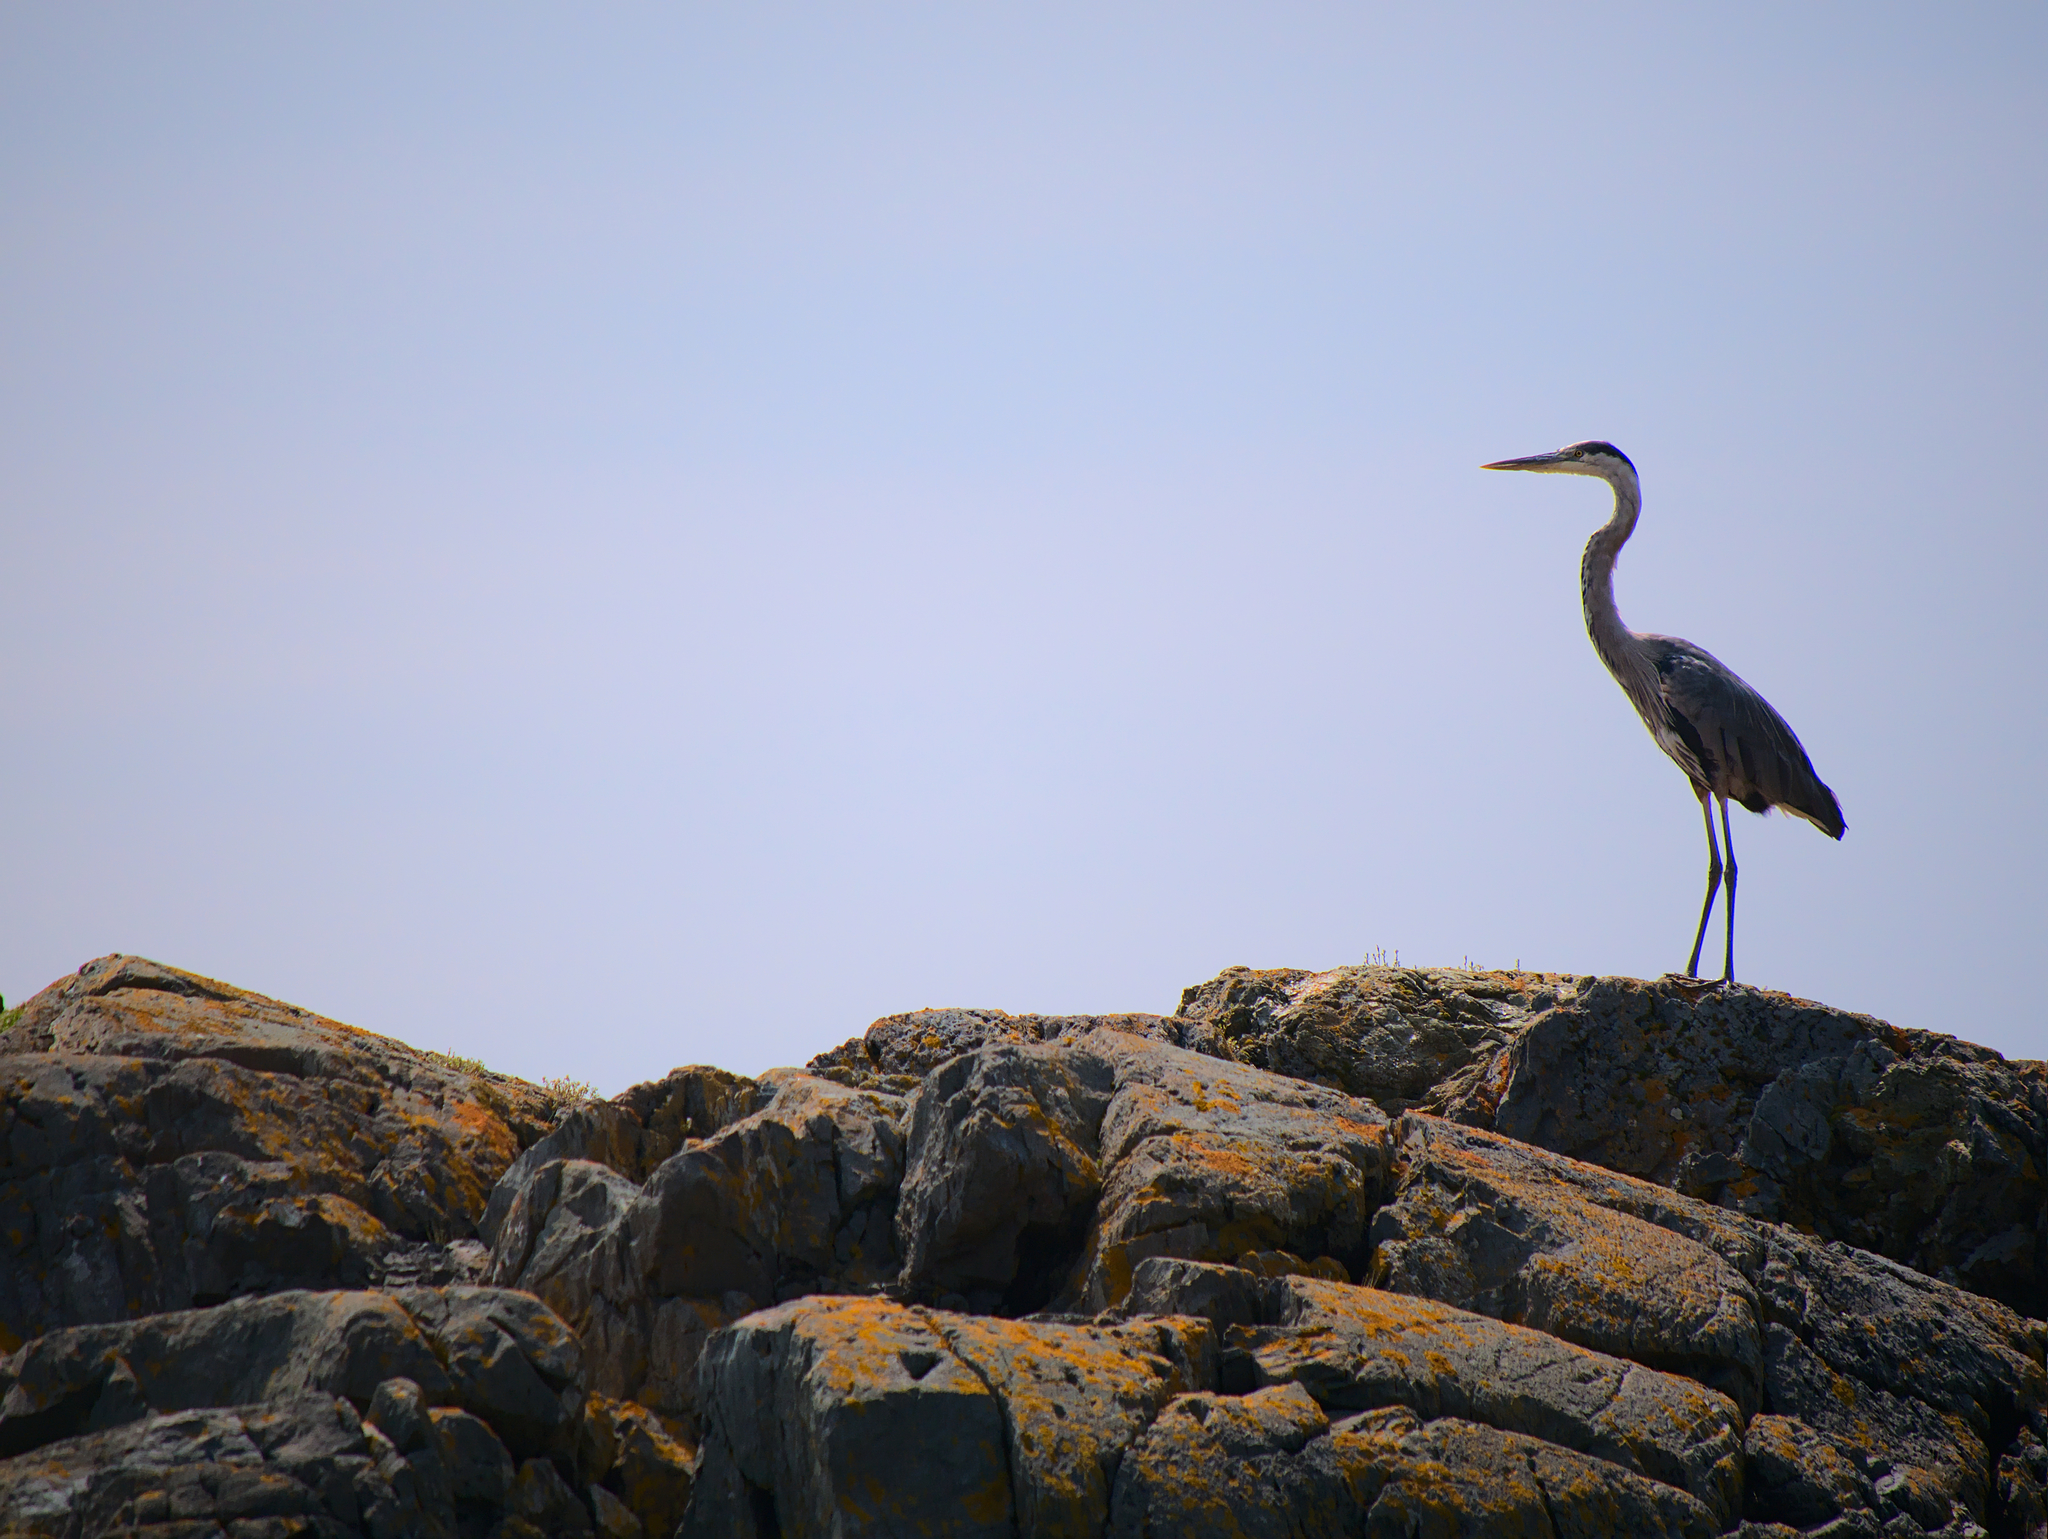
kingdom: Animalia
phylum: Chordata
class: Aves
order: Pelecaniformes
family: Ardeidae
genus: Ardea
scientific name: Ardea herodias
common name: Great blue heron
